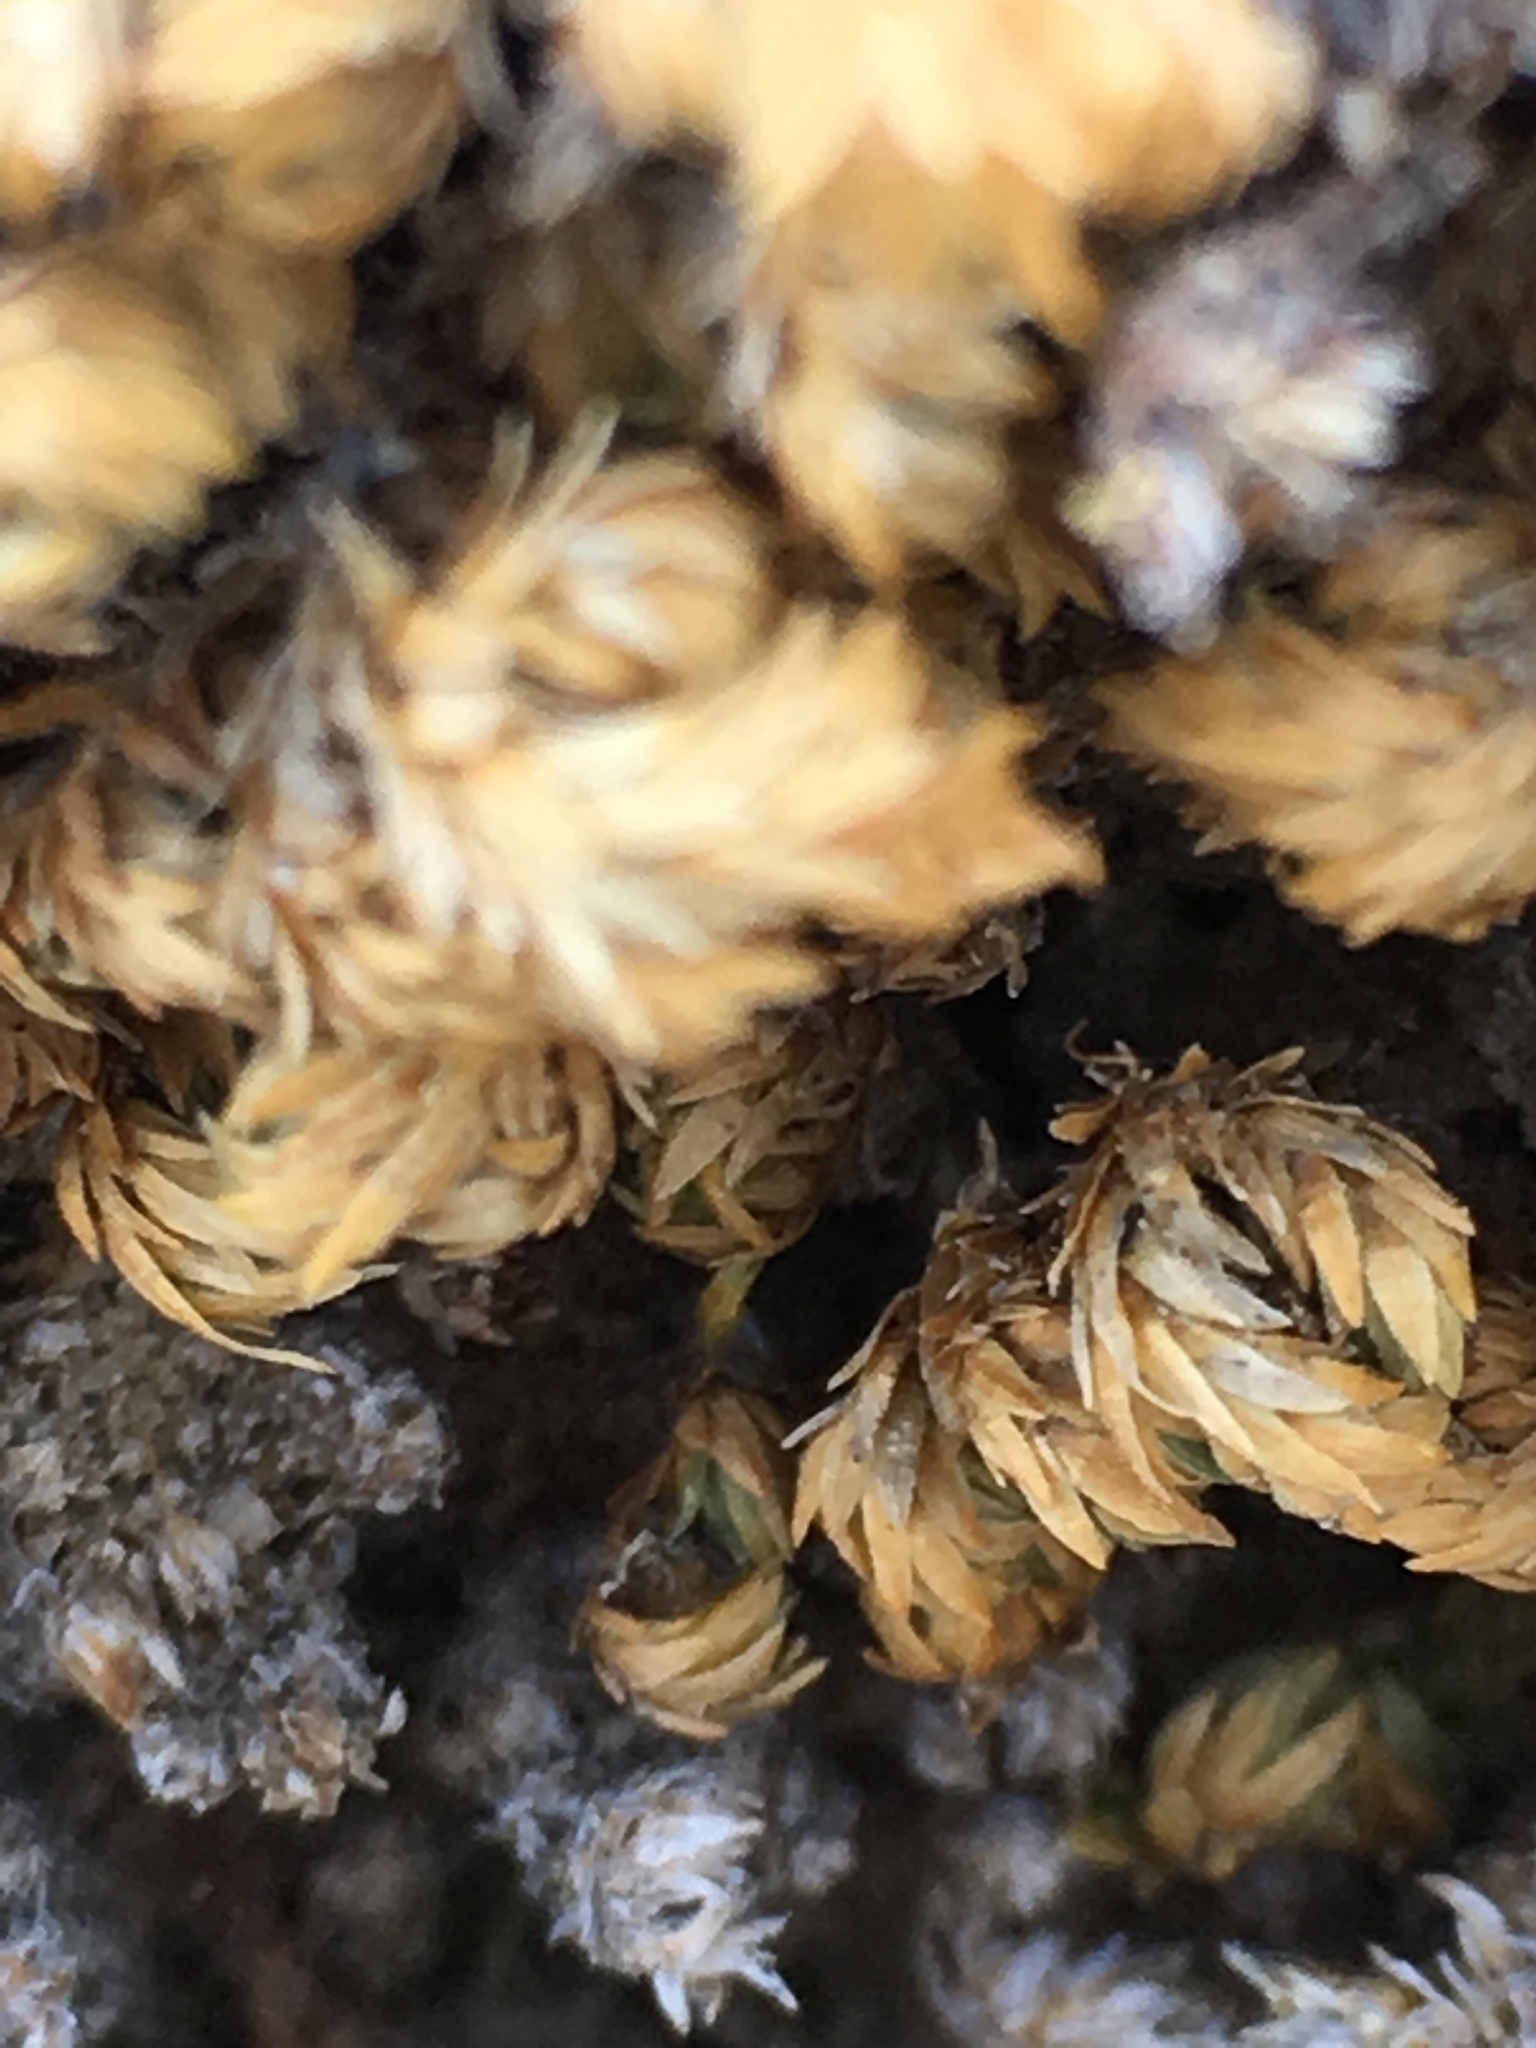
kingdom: Plantae
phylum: Tracheophyta
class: Lycopodiopsida
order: Selaginellales
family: Selaginellaceae
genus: Selaginella
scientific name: Selaginella eremophila
